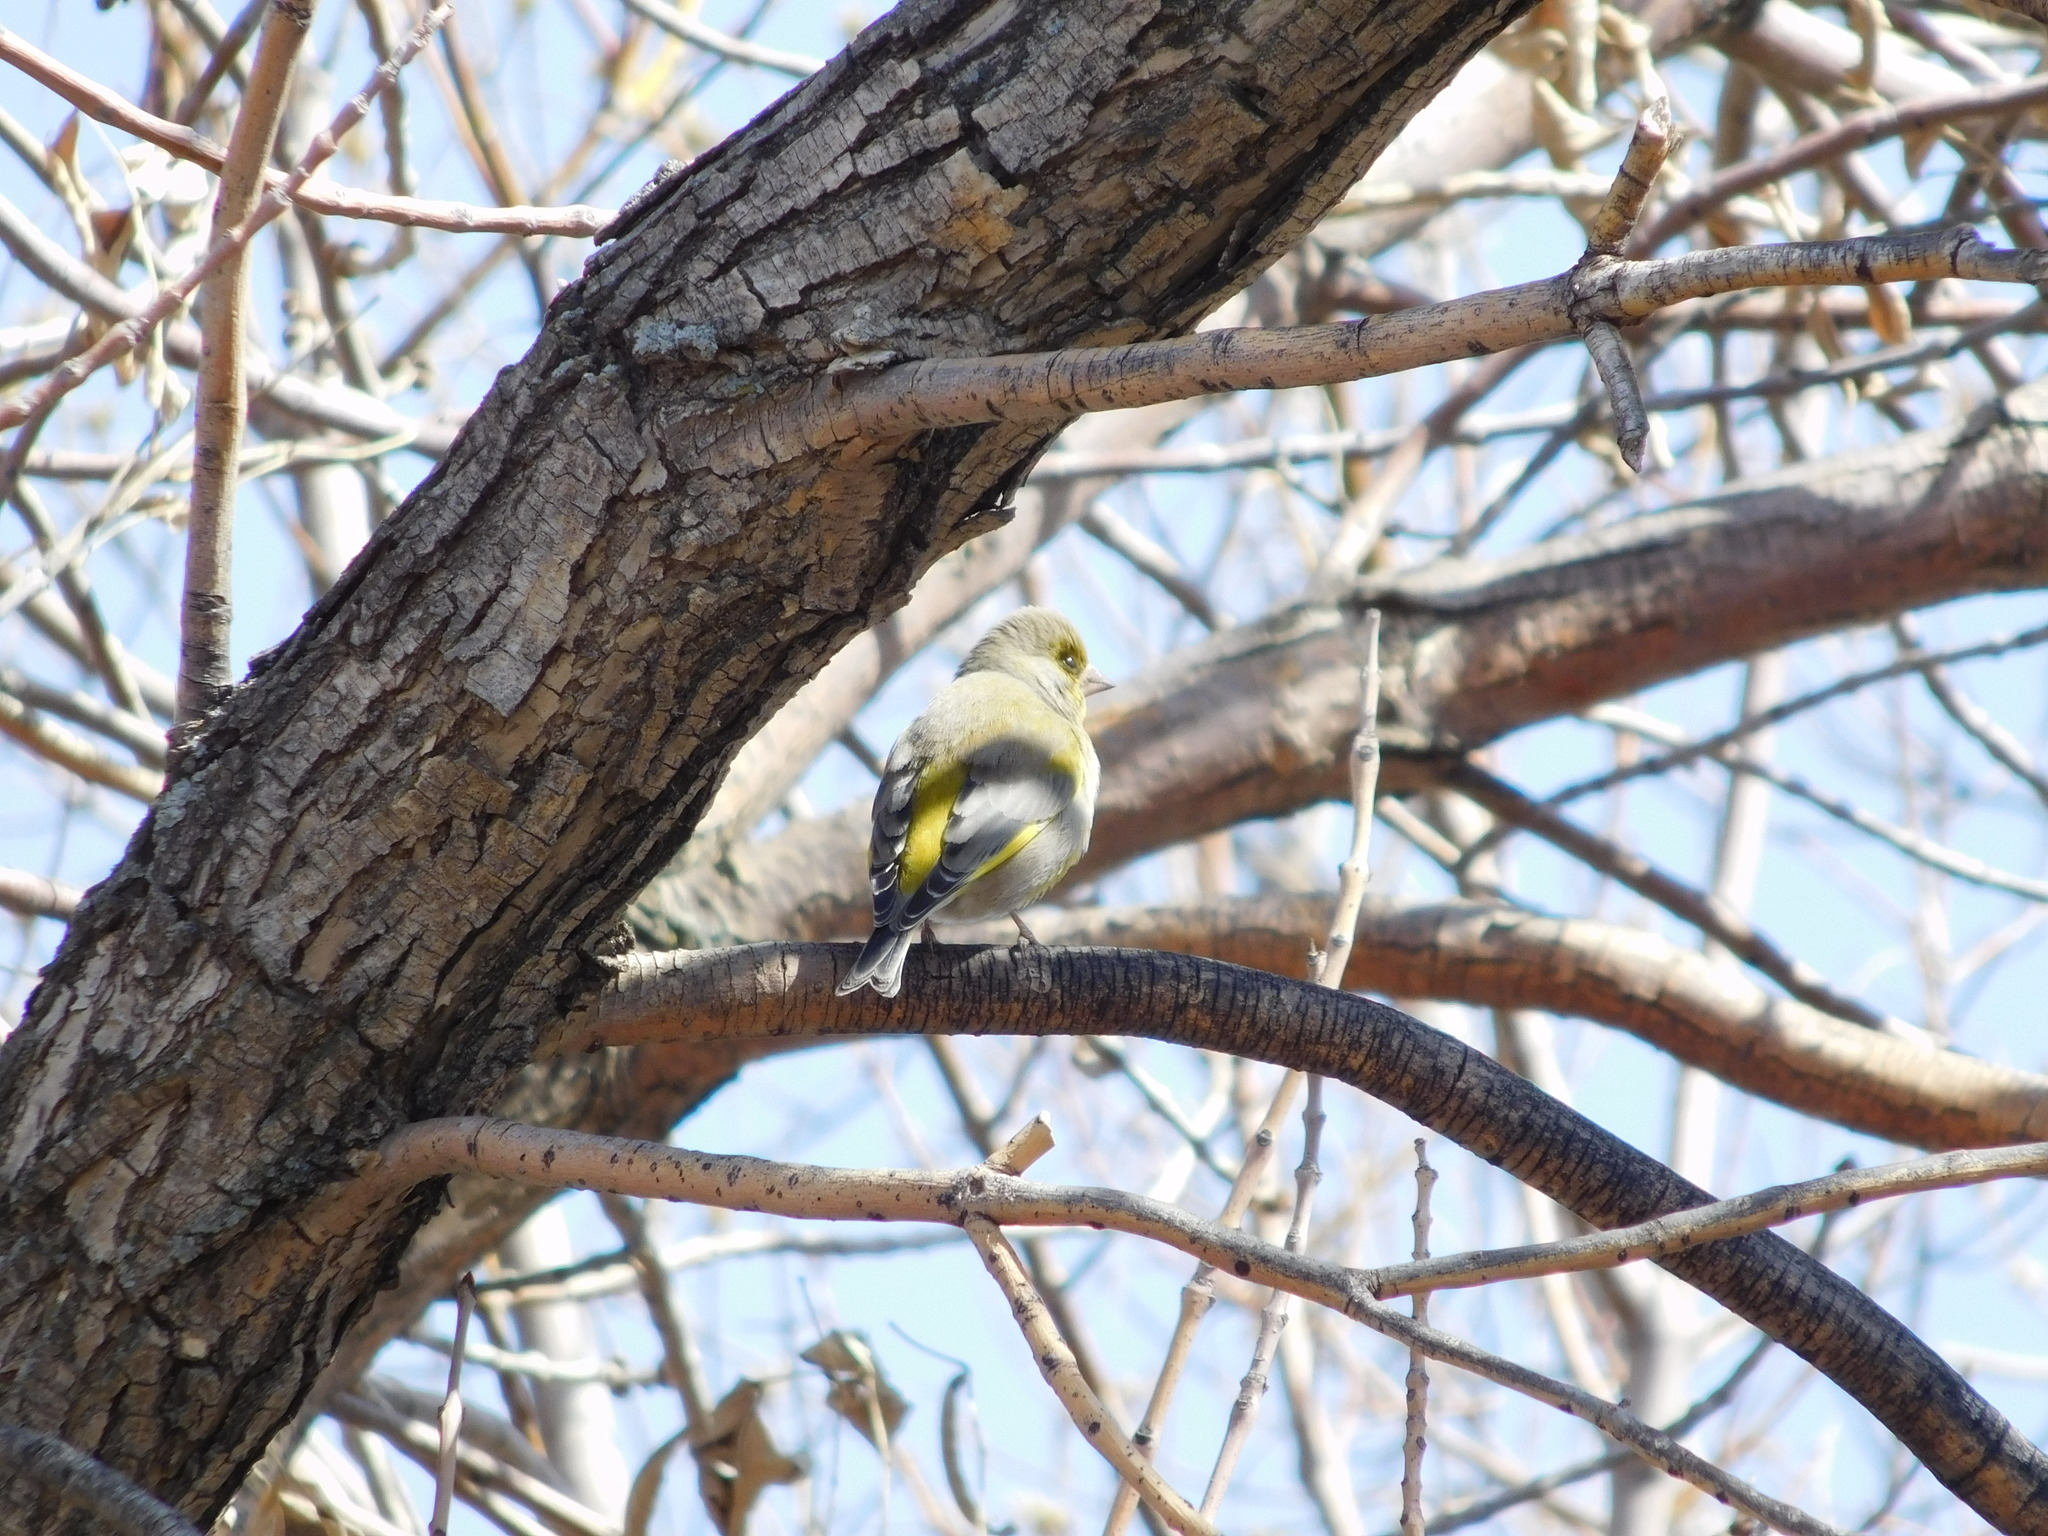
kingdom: Plantae
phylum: Tracheophyta
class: Liliopsida
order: Poales
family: Poaceae
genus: Chloris
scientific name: Chloris chloris
